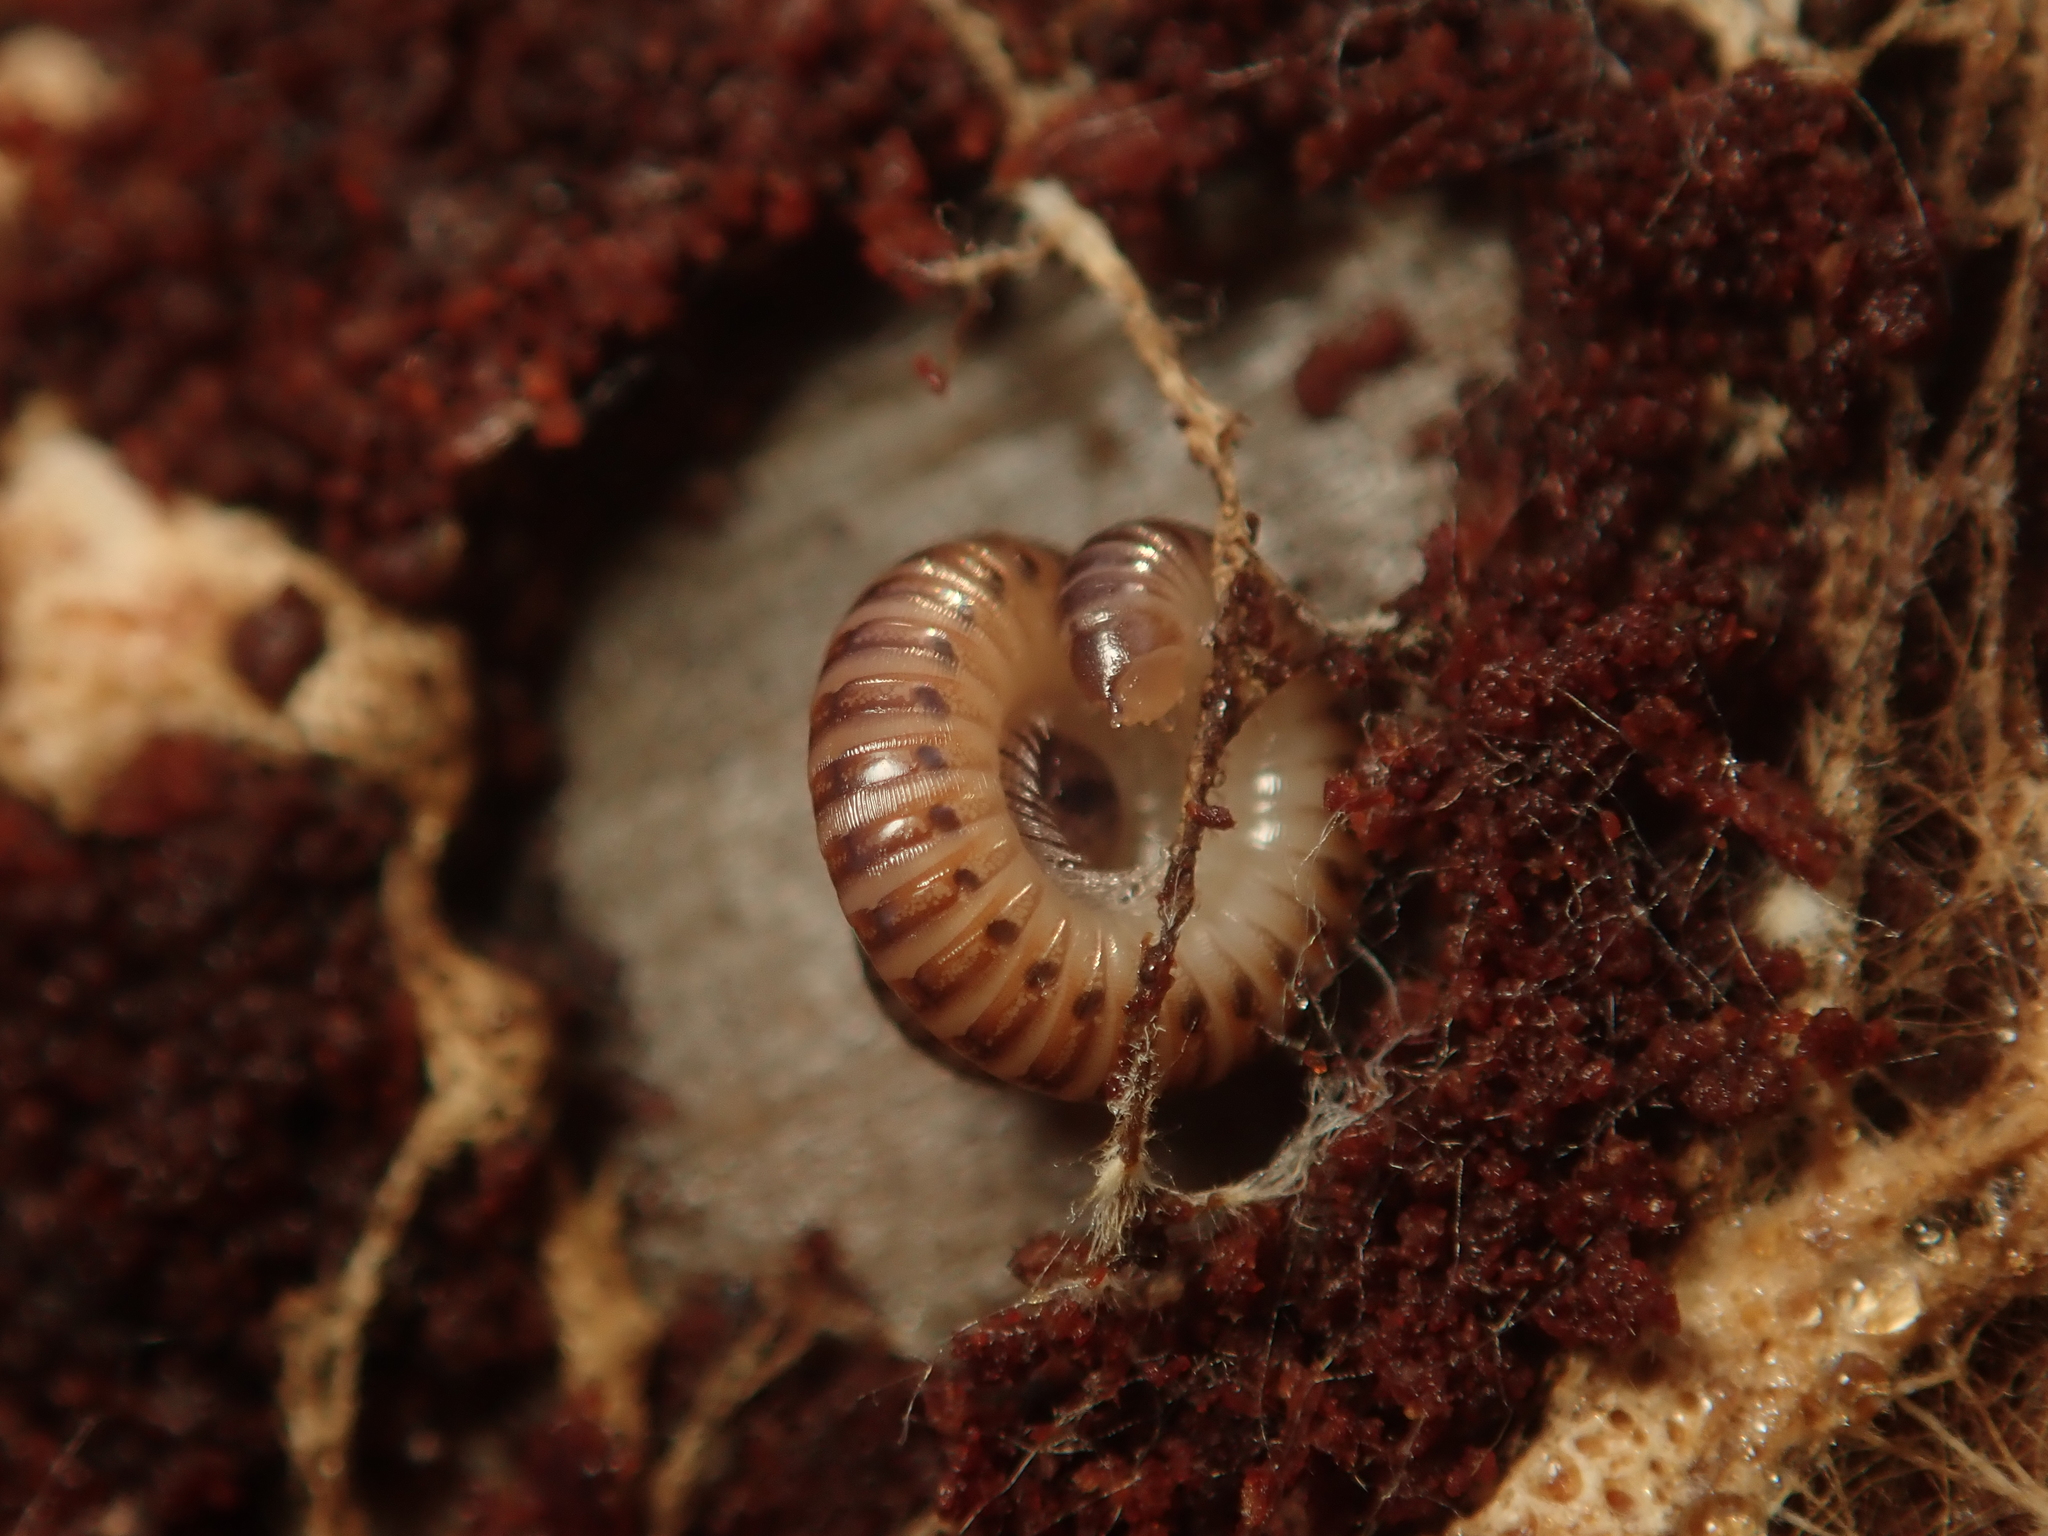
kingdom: Animalia
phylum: Arthropoda
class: Diplopoda
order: Julida
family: Julidae
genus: Cylindroiulus
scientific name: Cylindroiulus punctatus
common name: Blunt-tailed millipede
